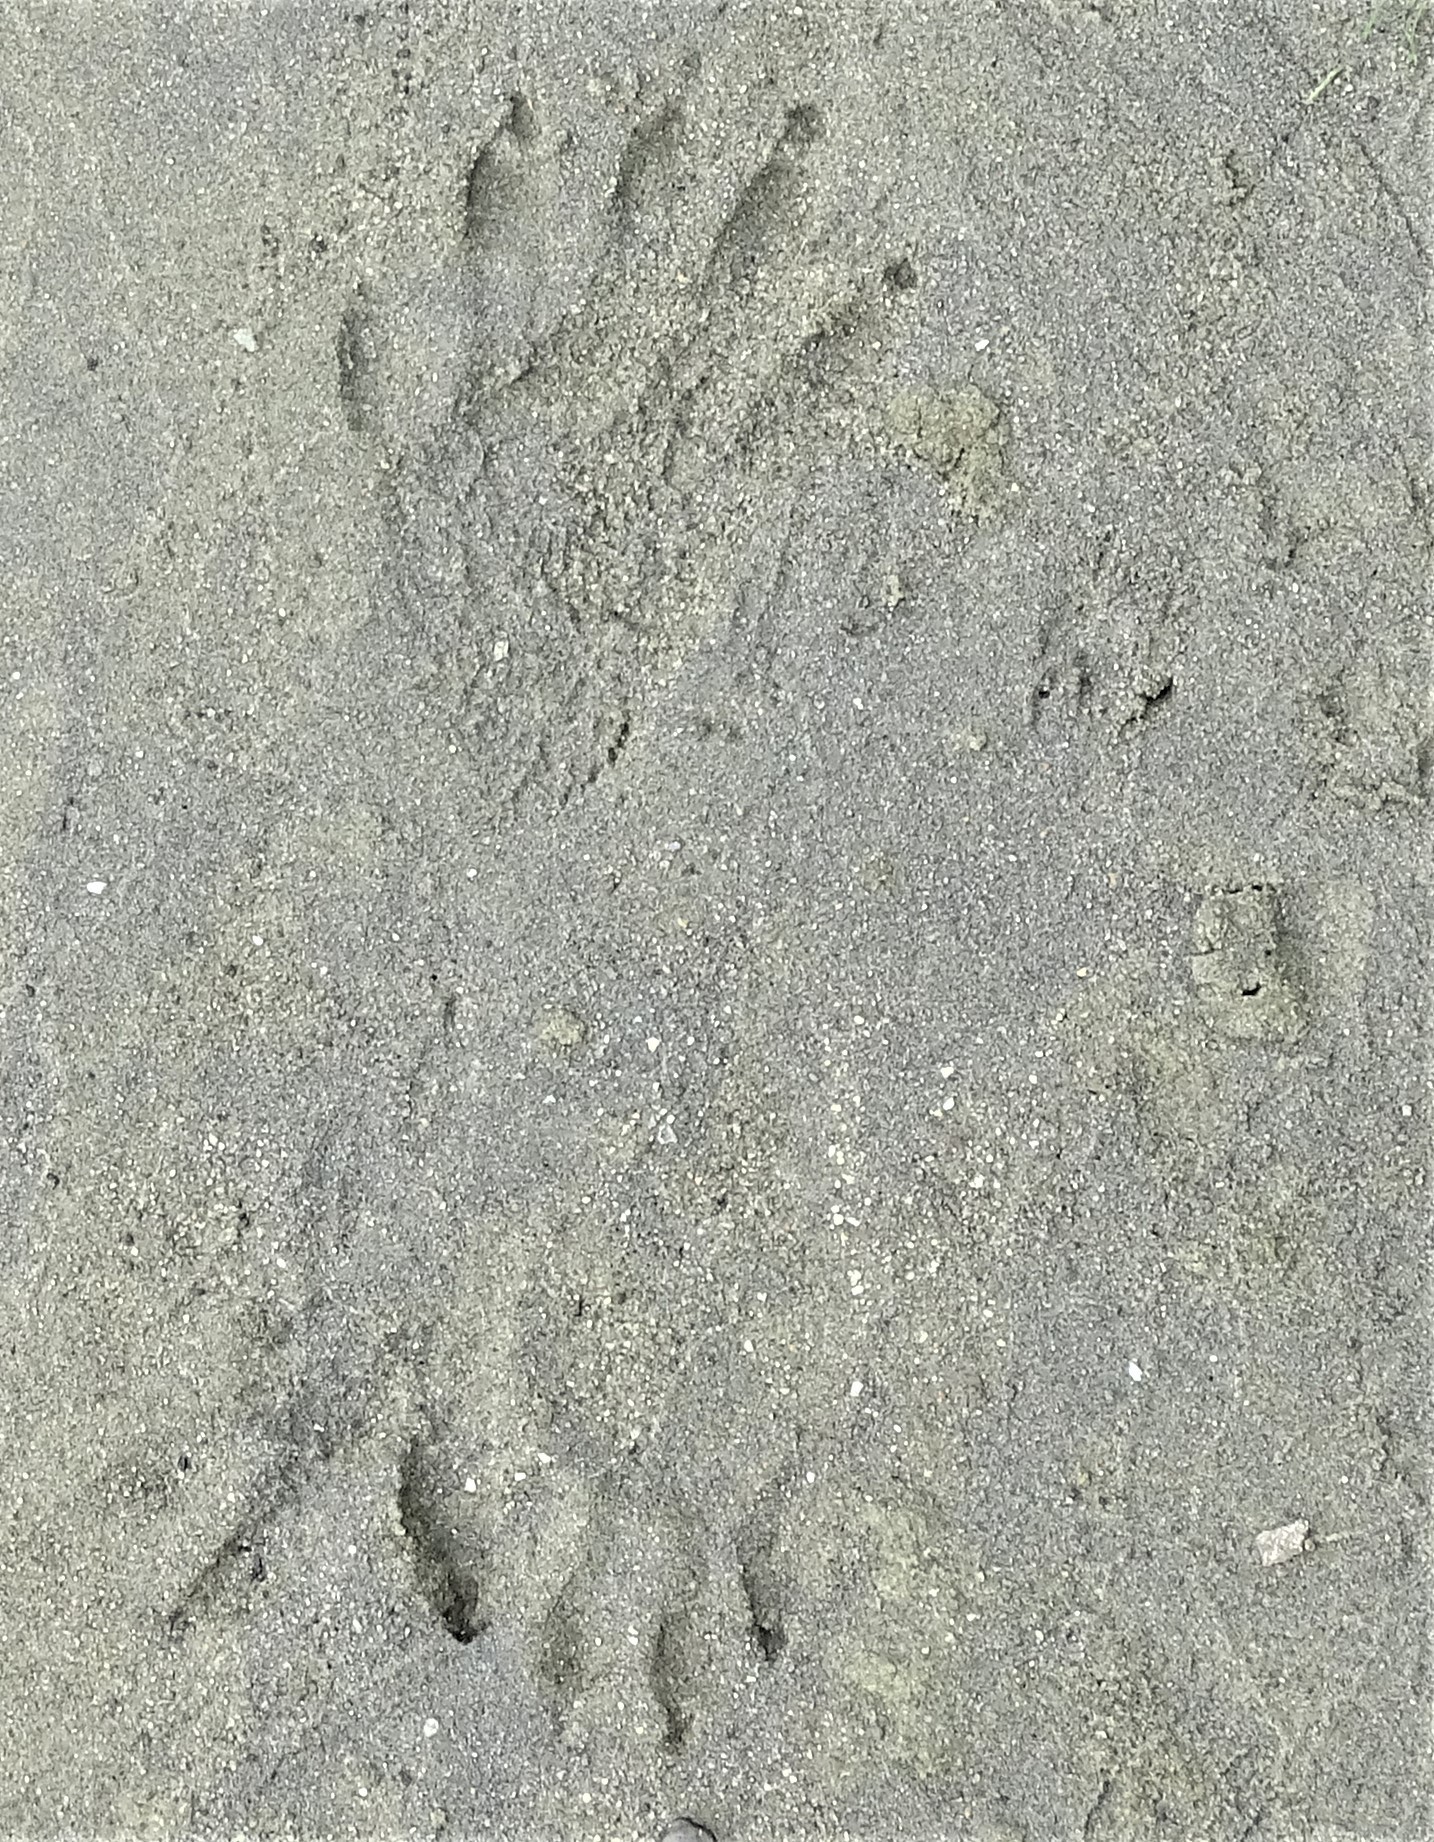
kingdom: Animalia
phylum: Chordata
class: Mammalia
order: Carnivora
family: Procyonidae
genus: Procyon
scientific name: Procyon lotor
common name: Raccoon
